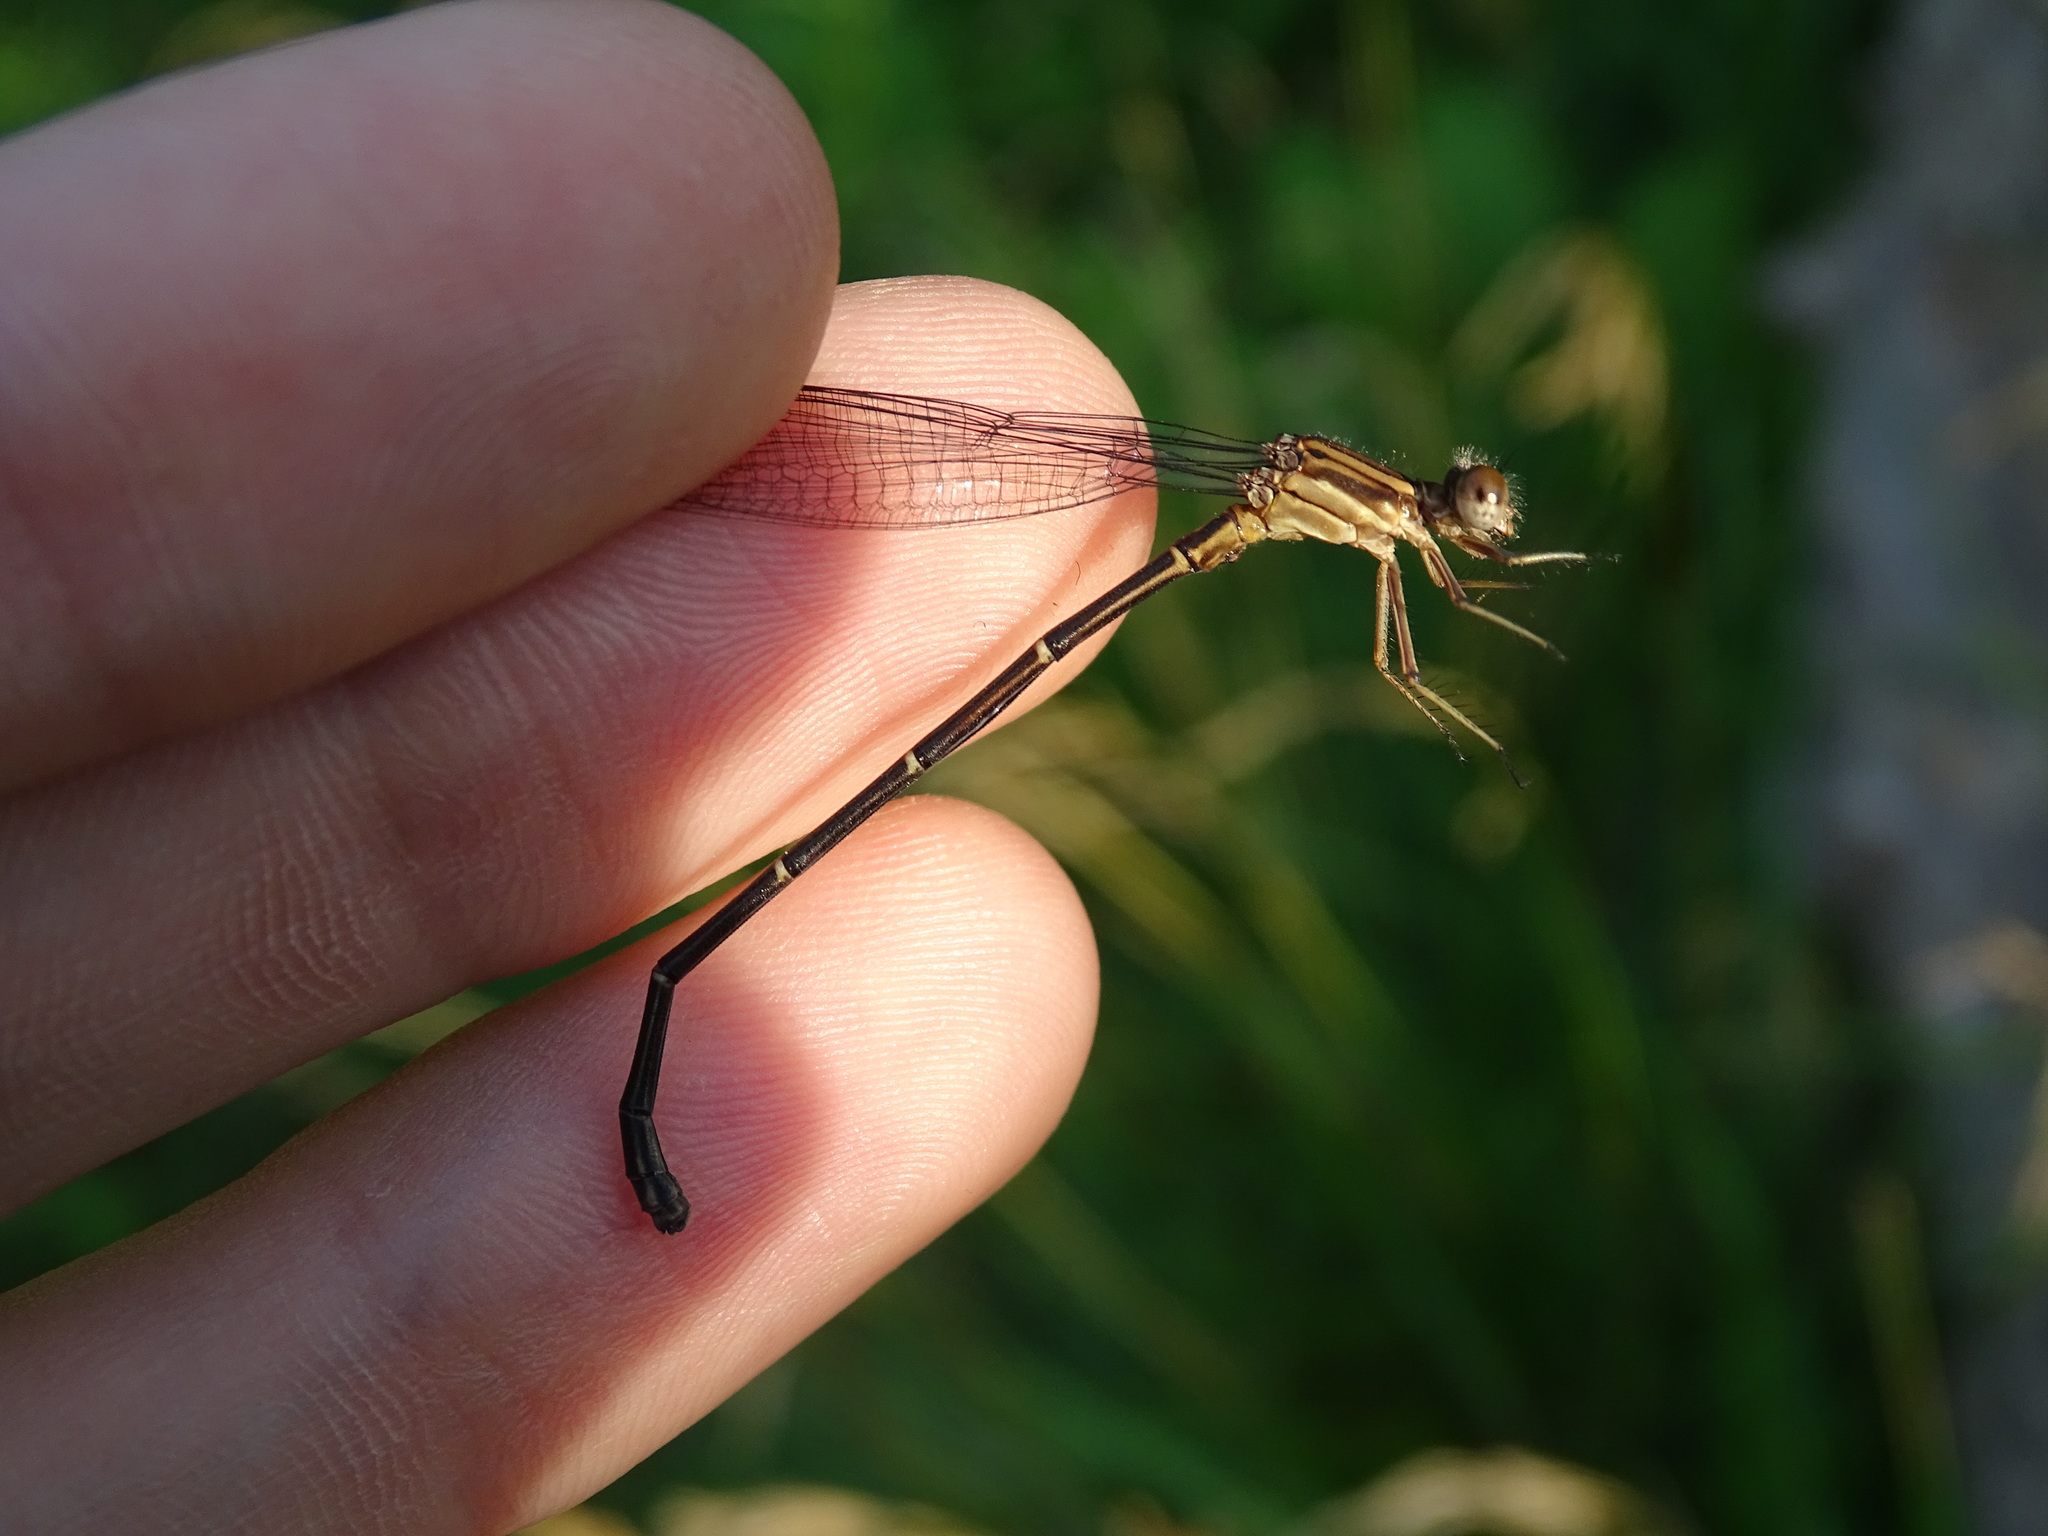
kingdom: Animalia
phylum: Arthropoda
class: Insecta
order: Odonata
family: Coenagrionidae
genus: Argia
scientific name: Argia moesta
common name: Powdered dancer
